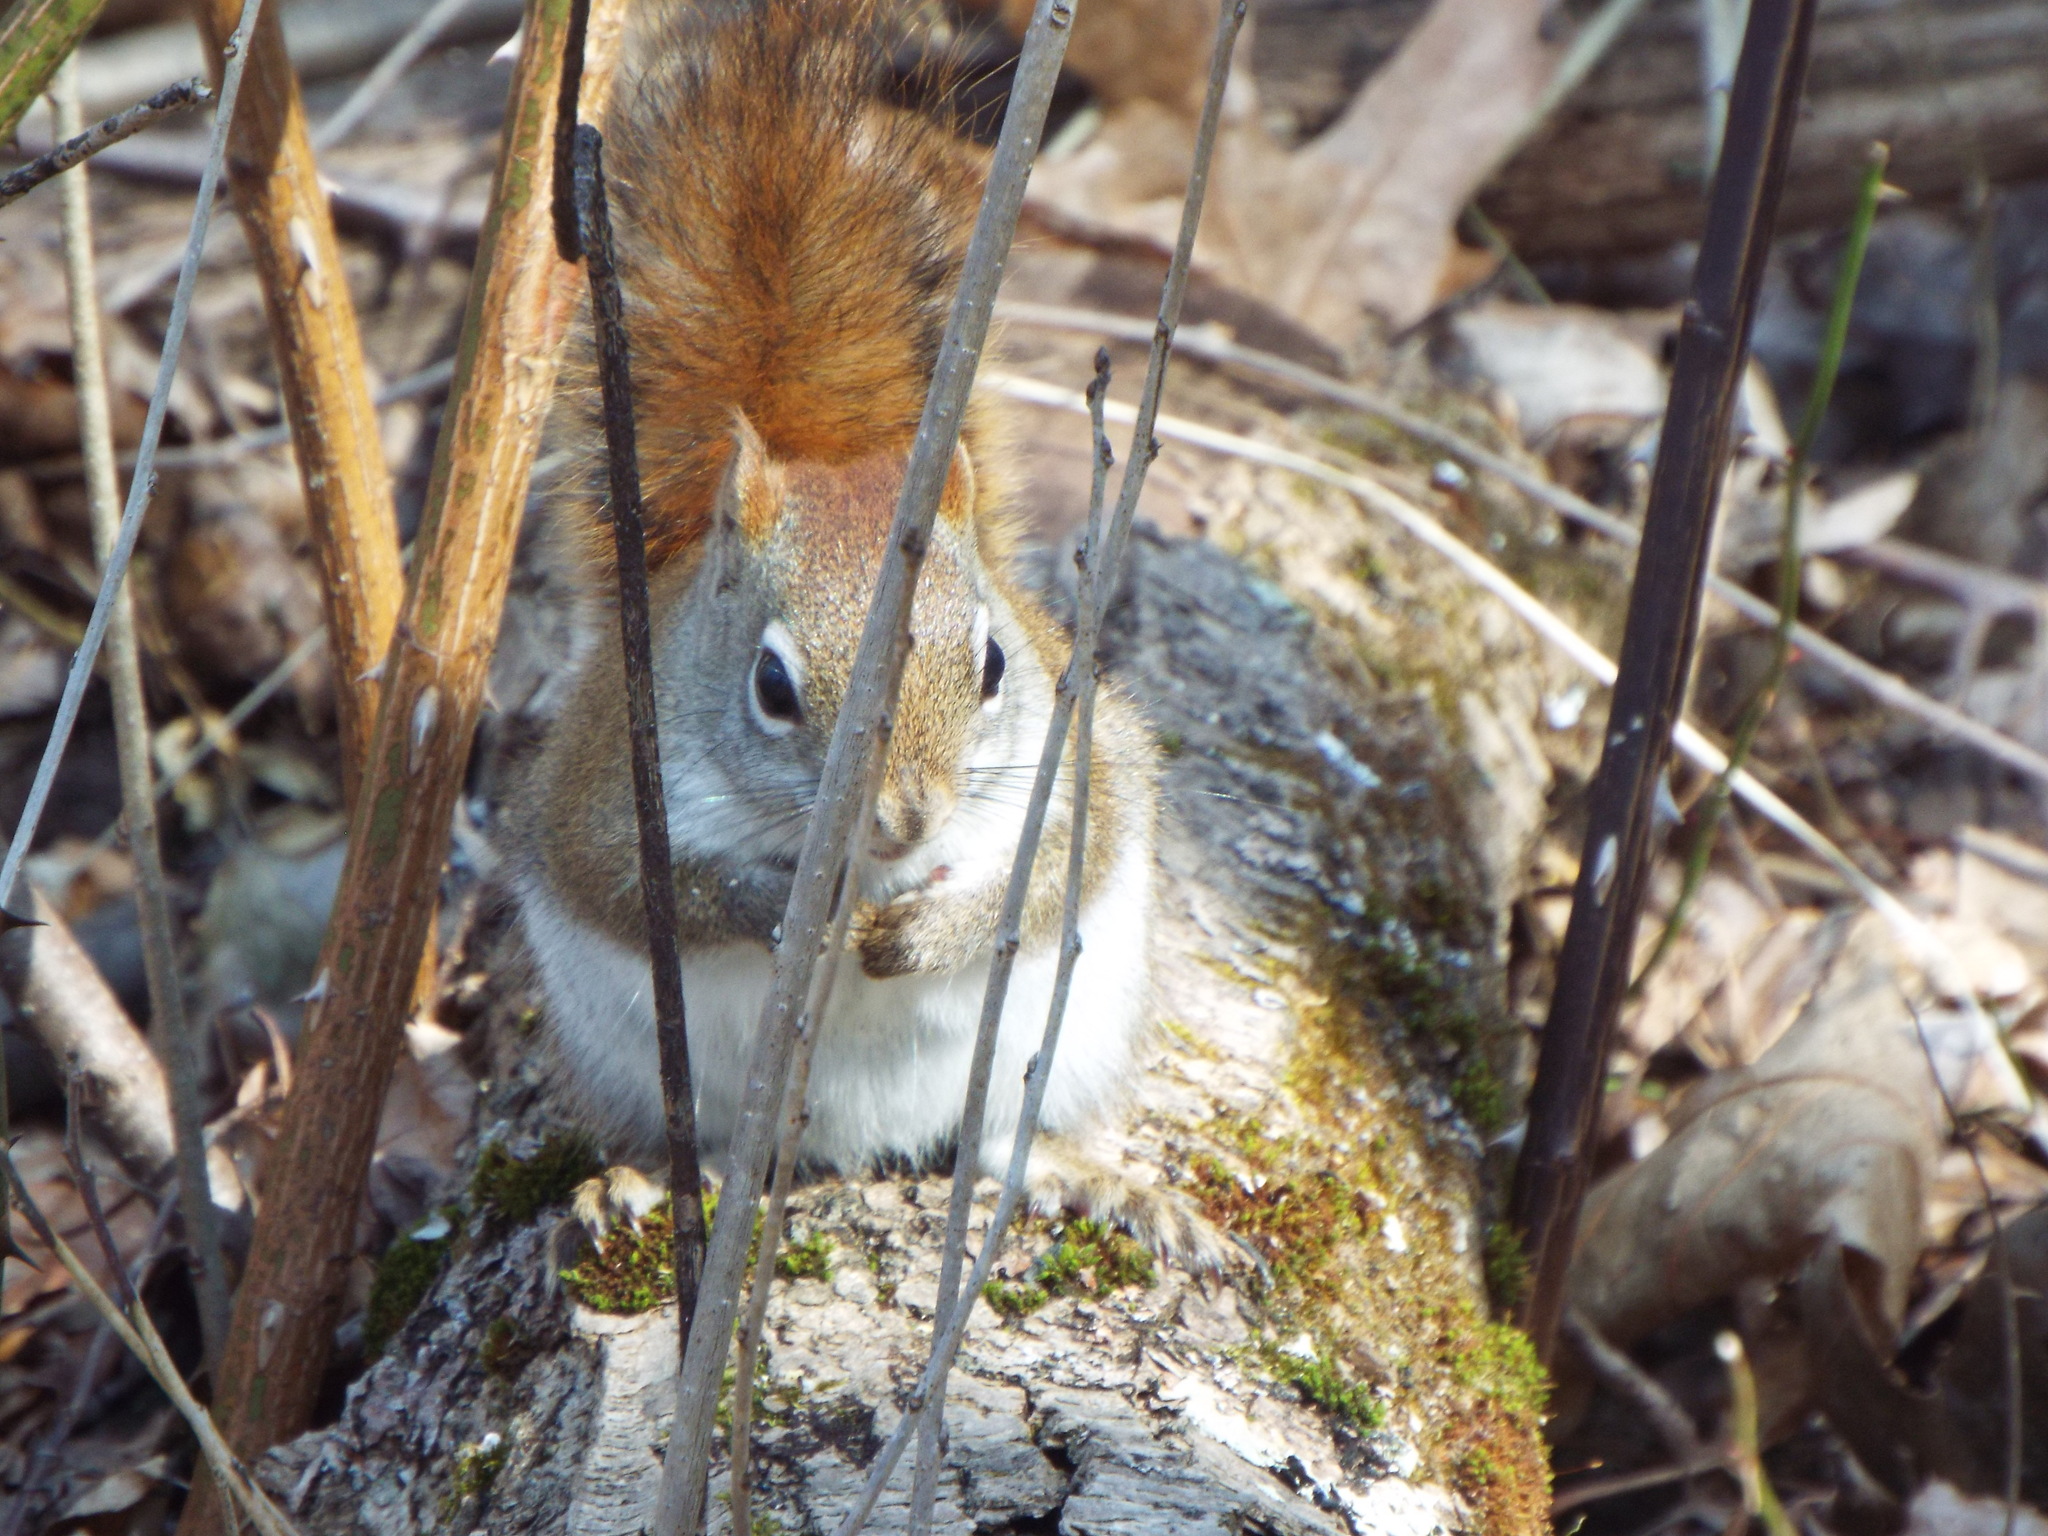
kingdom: Animalia
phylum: Chordata
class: Mammalia
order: Rodentia
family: Sciuridae
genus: Tamiasciurus
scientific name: Tamiasciurus hudsonicus
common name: Red squirrel
